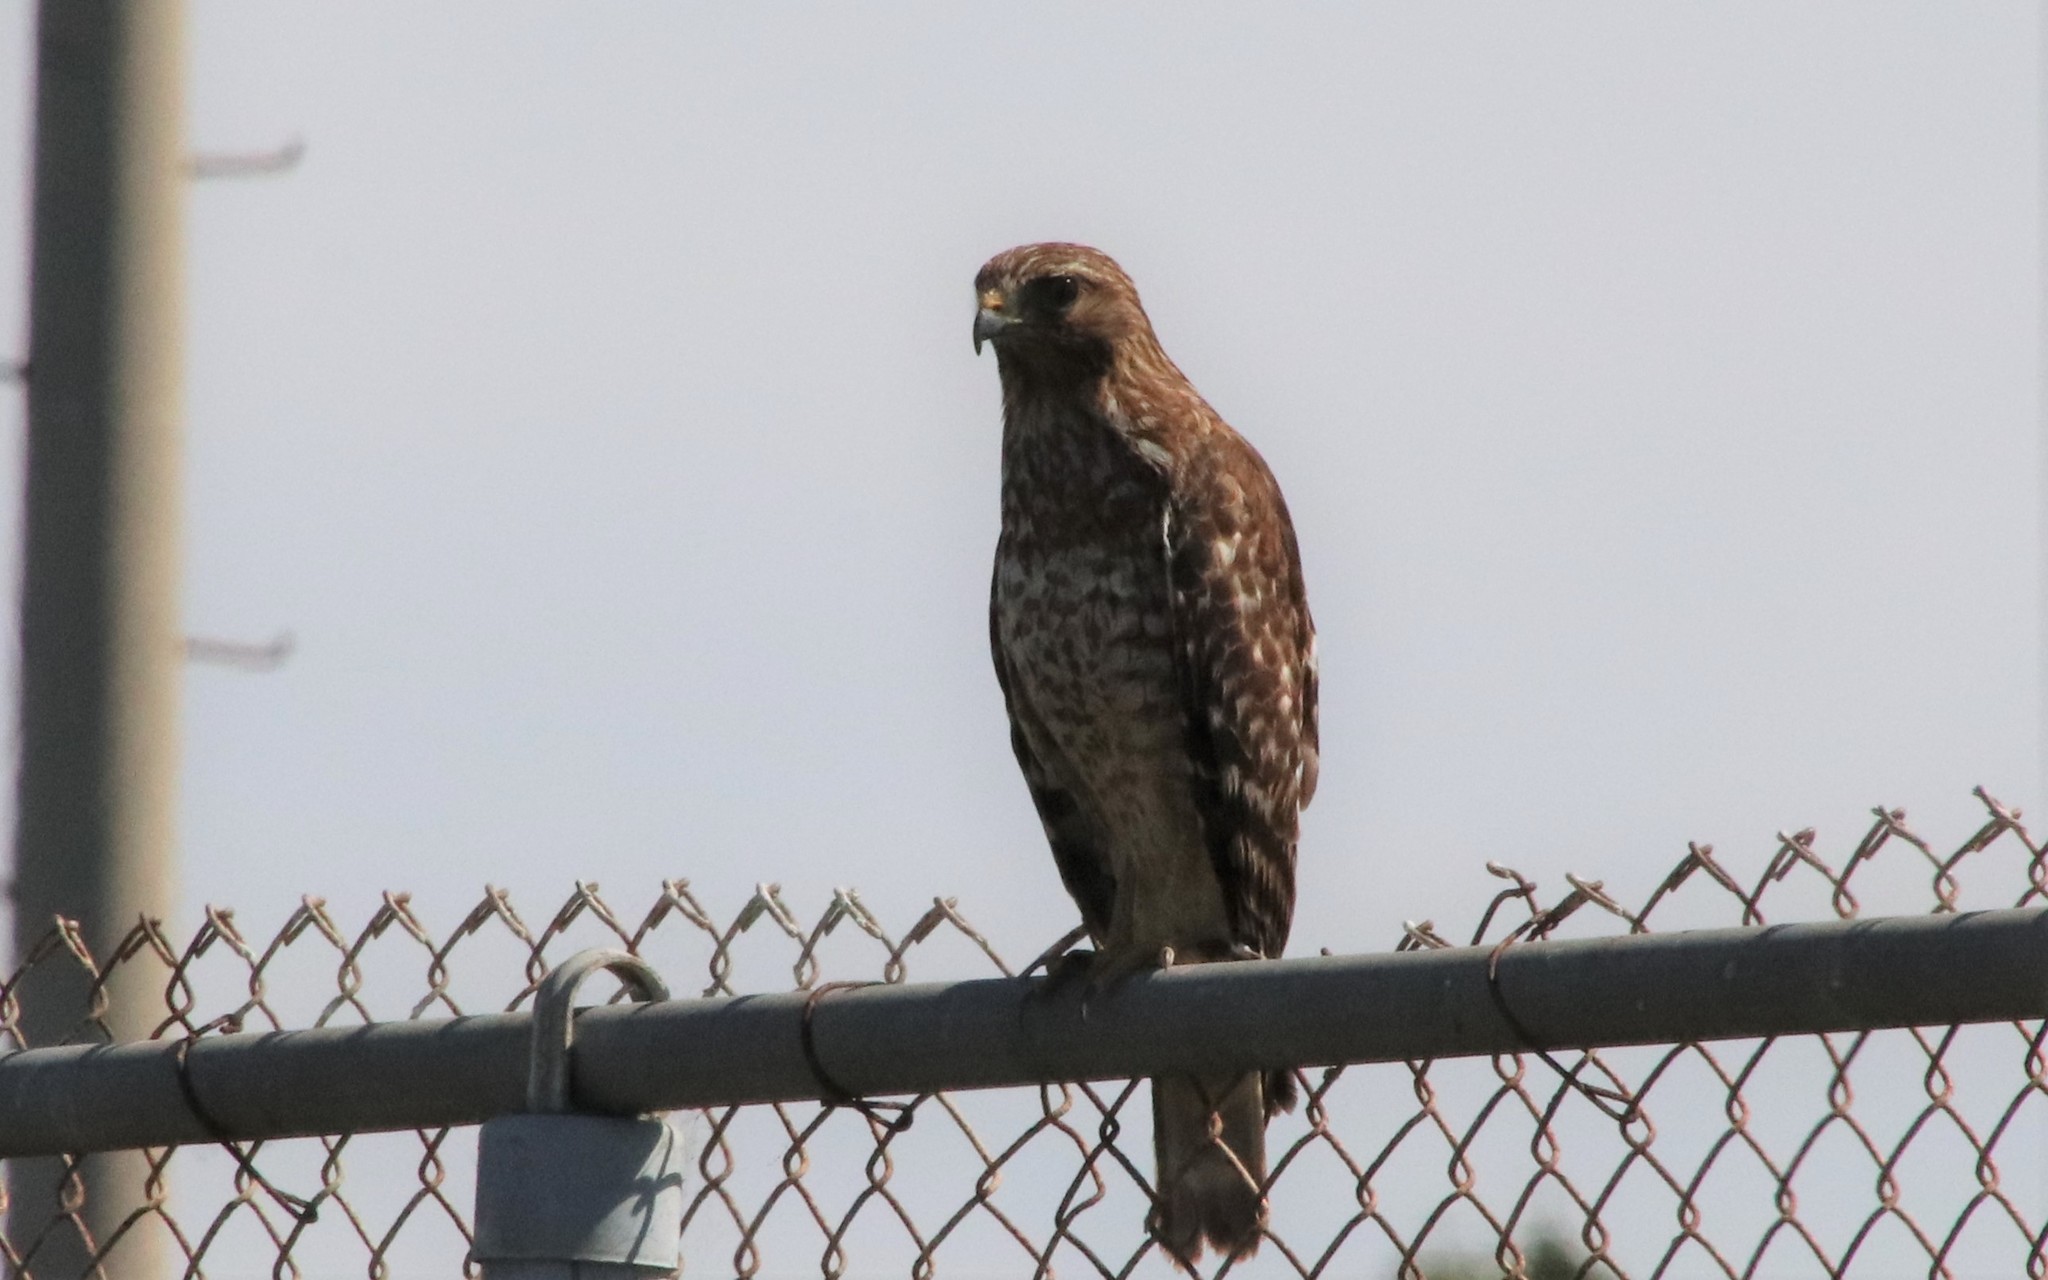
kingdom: Animalia
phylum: Chordata
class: Aves
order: Accipitriformes
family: Accipitridae
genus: Buteo
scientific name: Buteo lineatus
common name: Red-shouldered hawk
